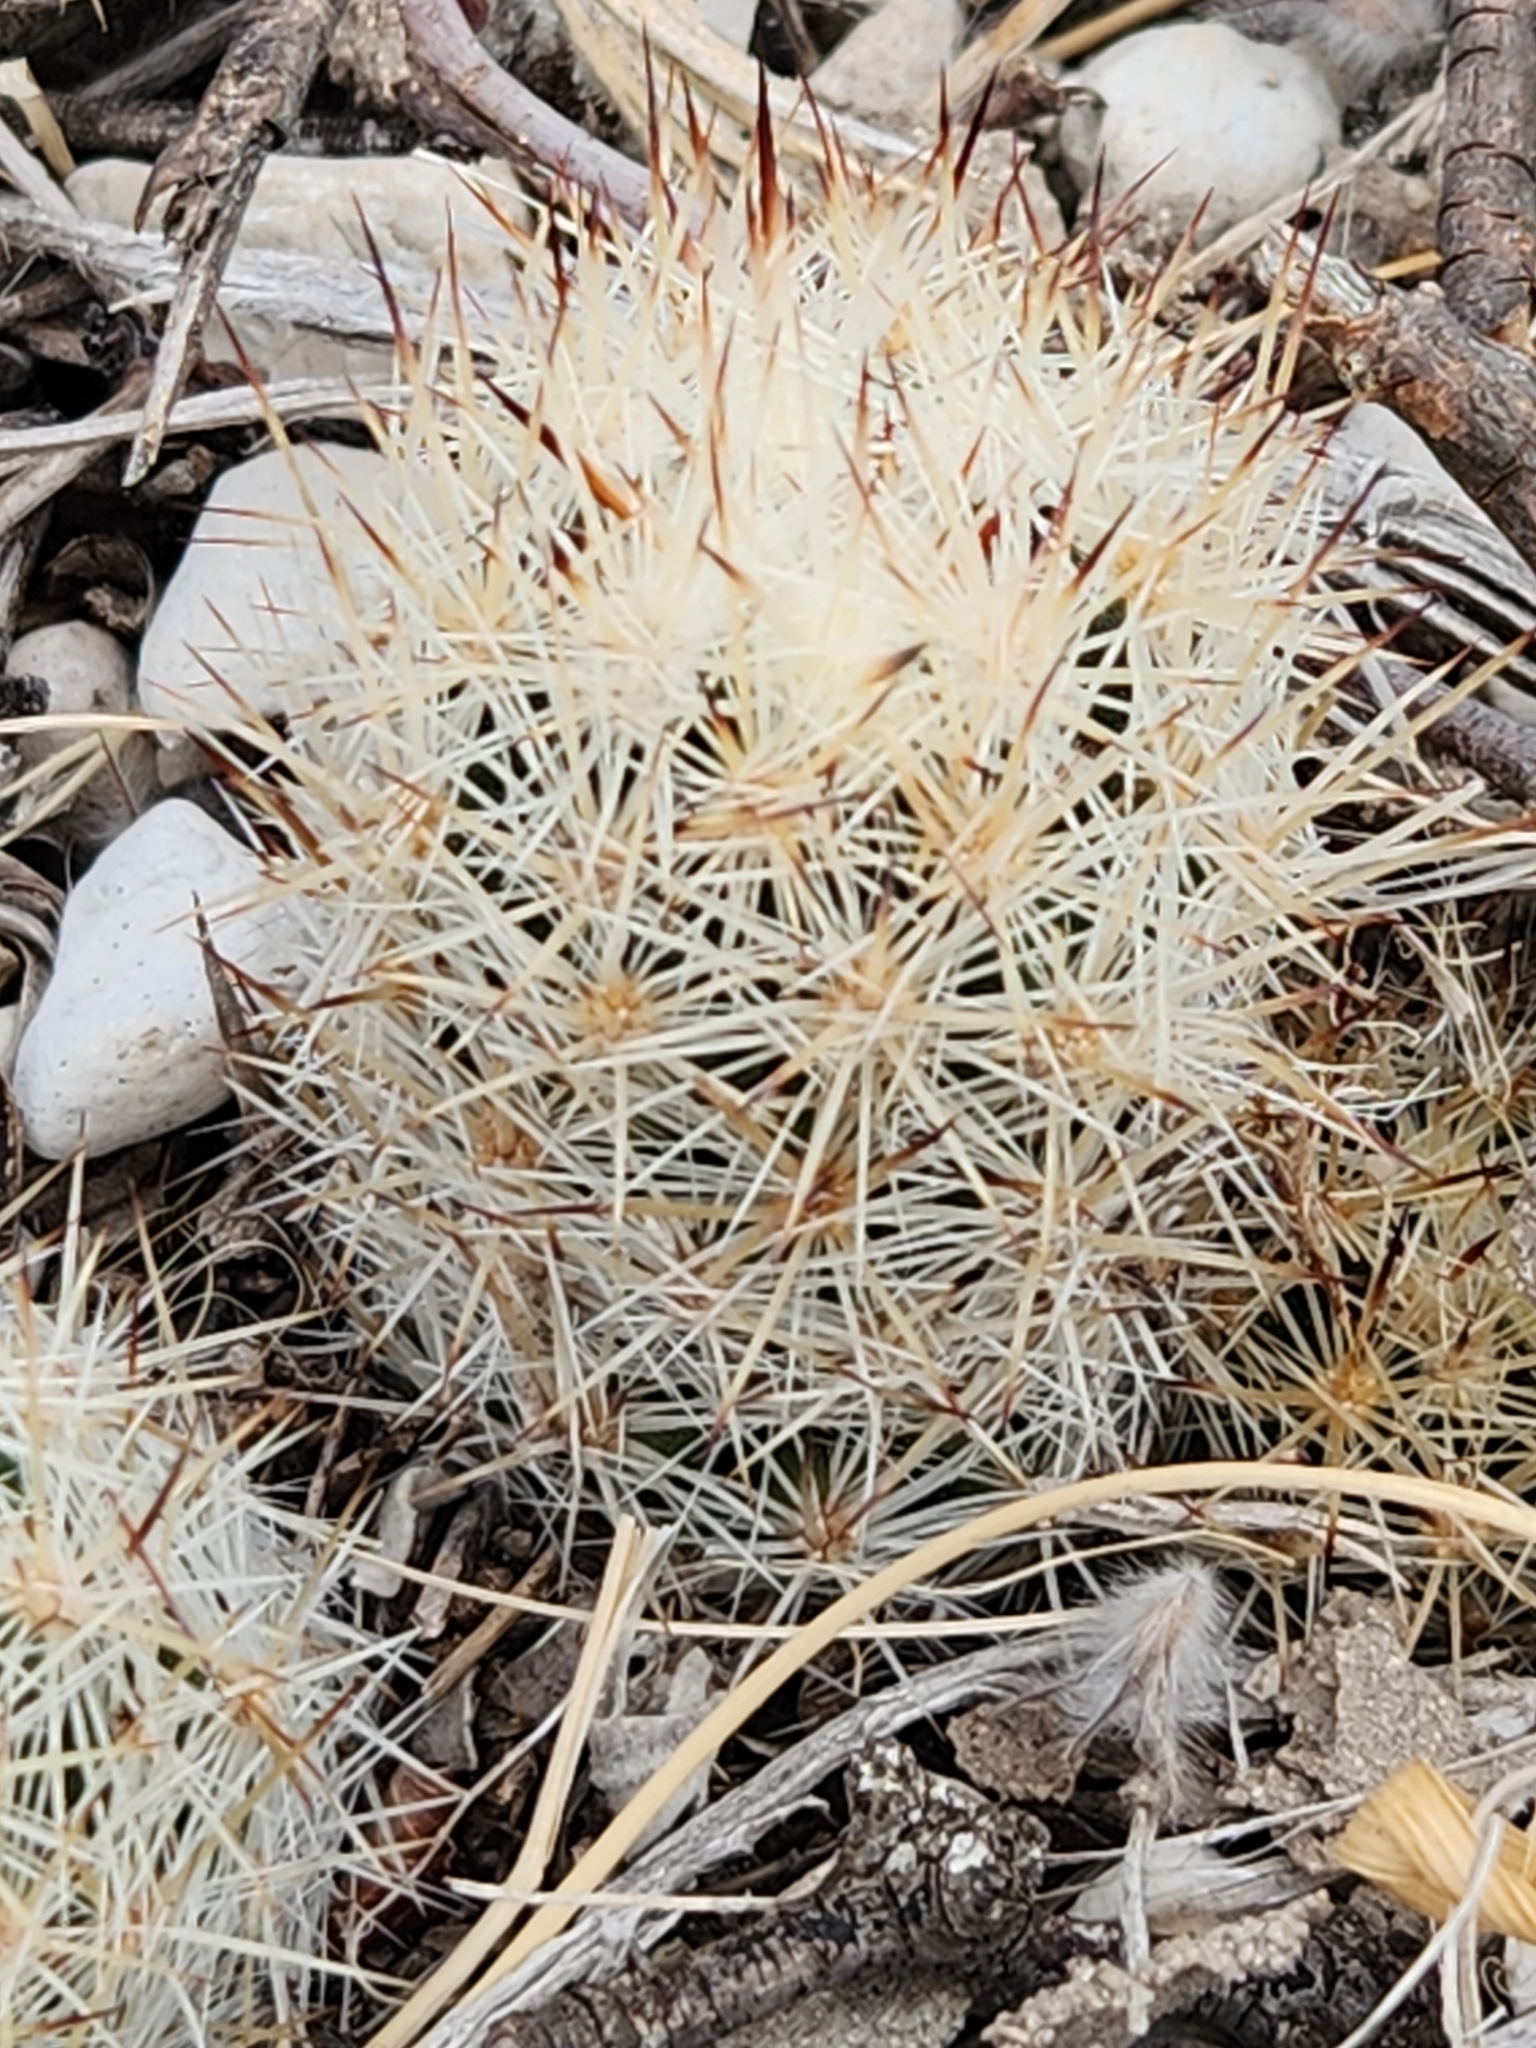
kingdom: Plantae
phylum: Tracheophyta
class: Magnoliopsida
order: Caryophyllales
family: Cactaceae
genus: Pelecyphora
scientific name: Pelecyphora emskoetteriana
